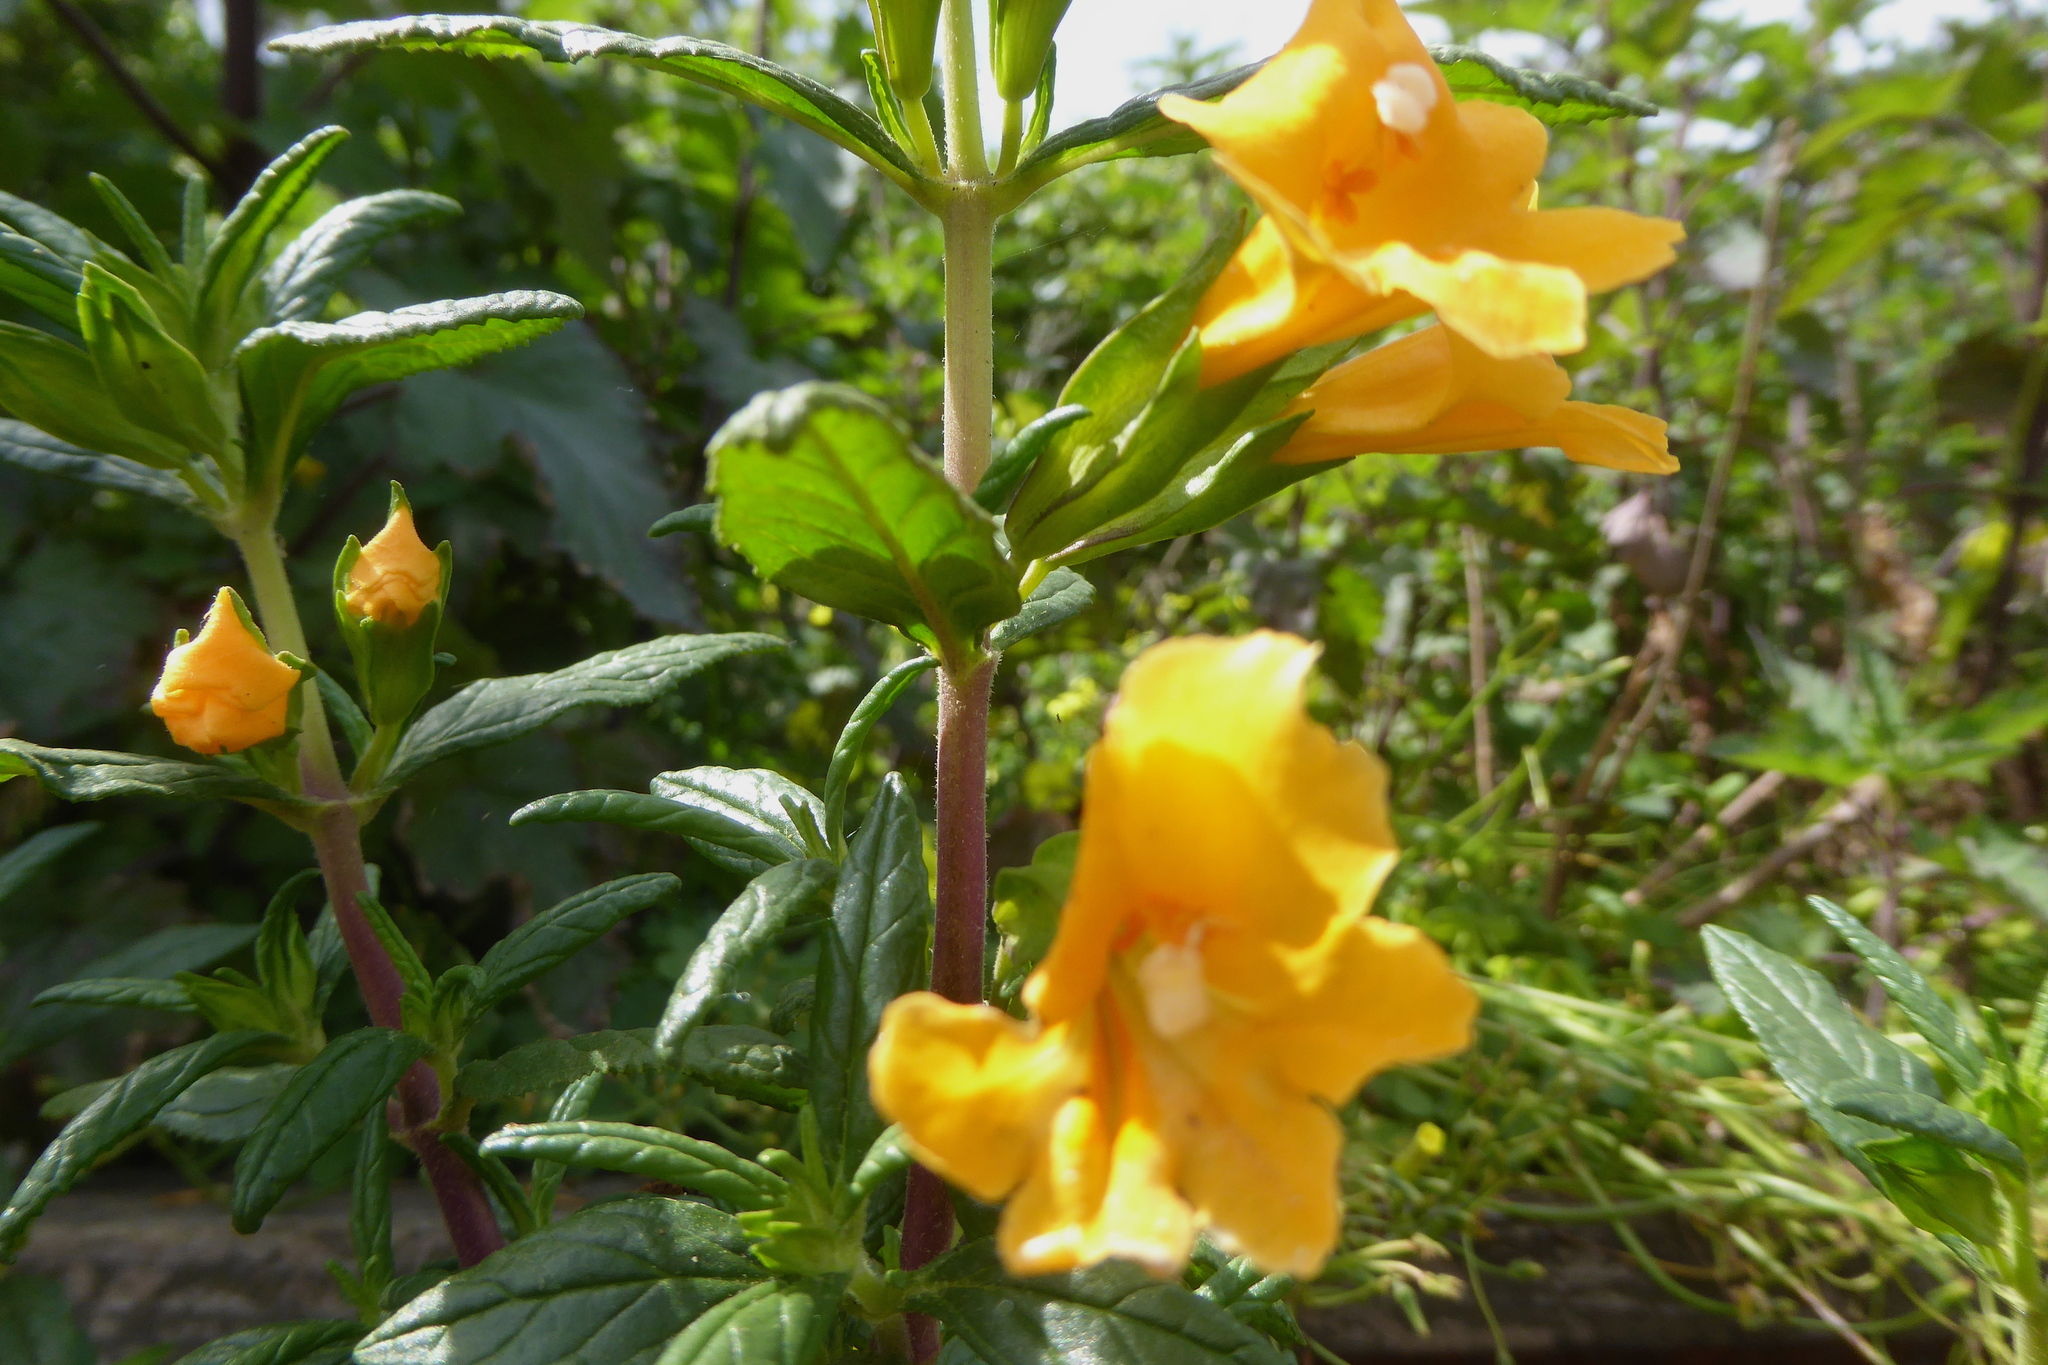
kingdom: Plantae
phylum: Tracheophyta
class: Magnoliopsida
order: Lamiales
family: Phrymaceae
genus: Diplacus
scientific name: Diplacus aurantiacus
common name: Bush monkey-flower
